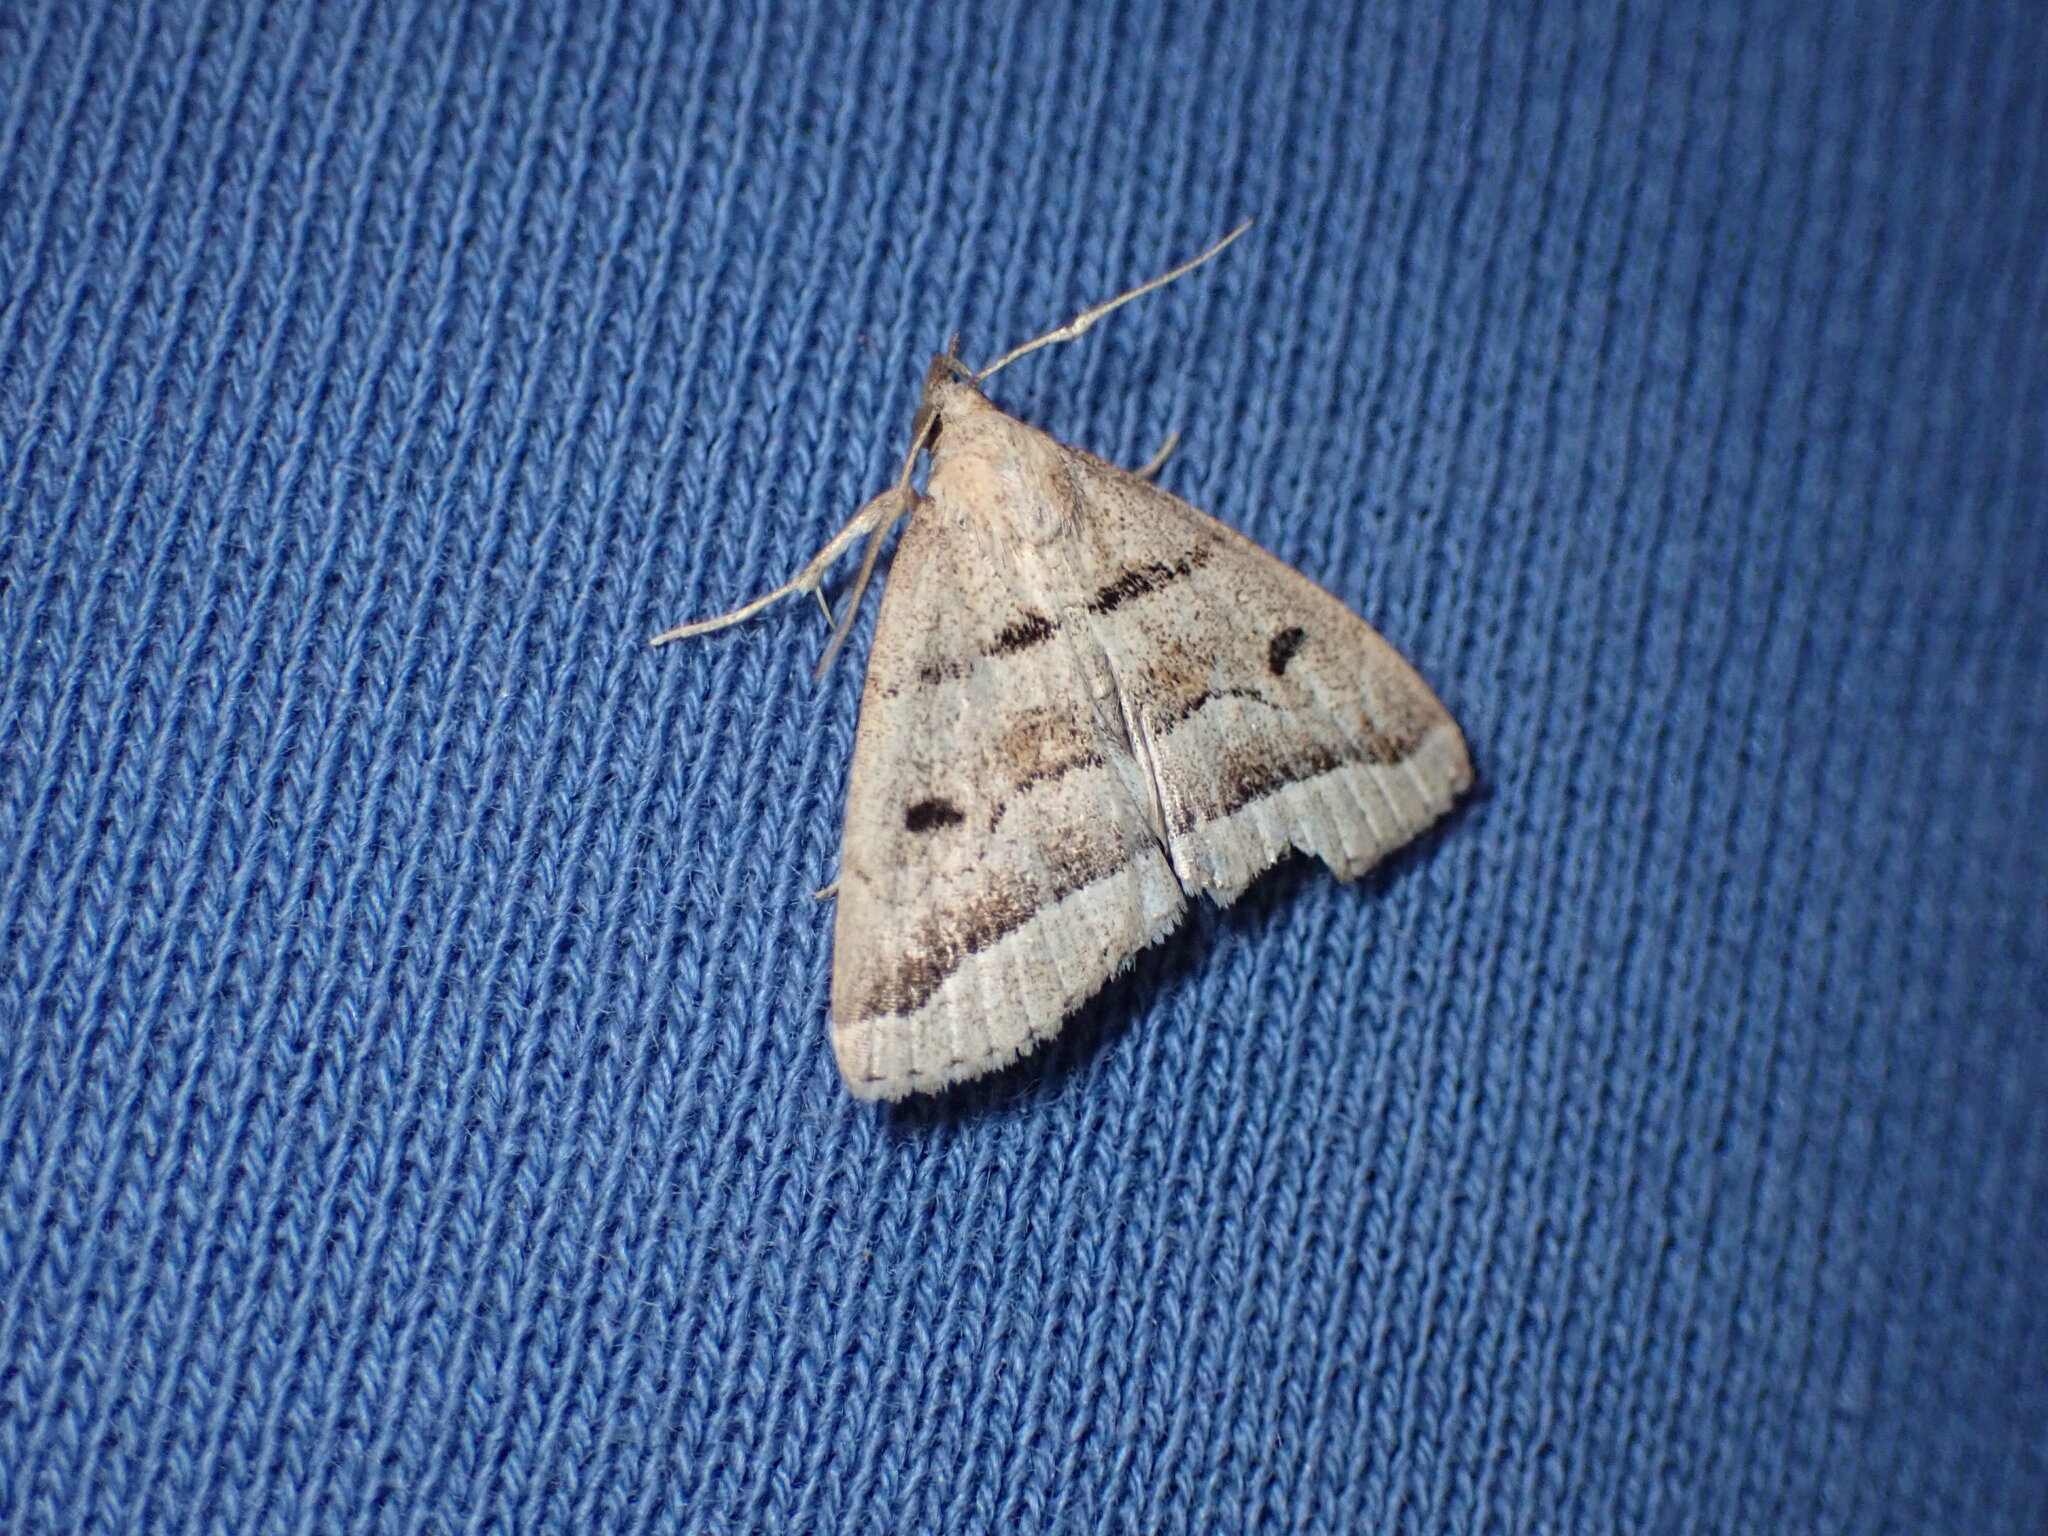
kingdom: Animalia
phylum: Arthropoda
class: Insecta
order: Lepidoptera
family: Erebidae
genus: Zanclognatha
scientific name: Zanclognatha atrilineella
